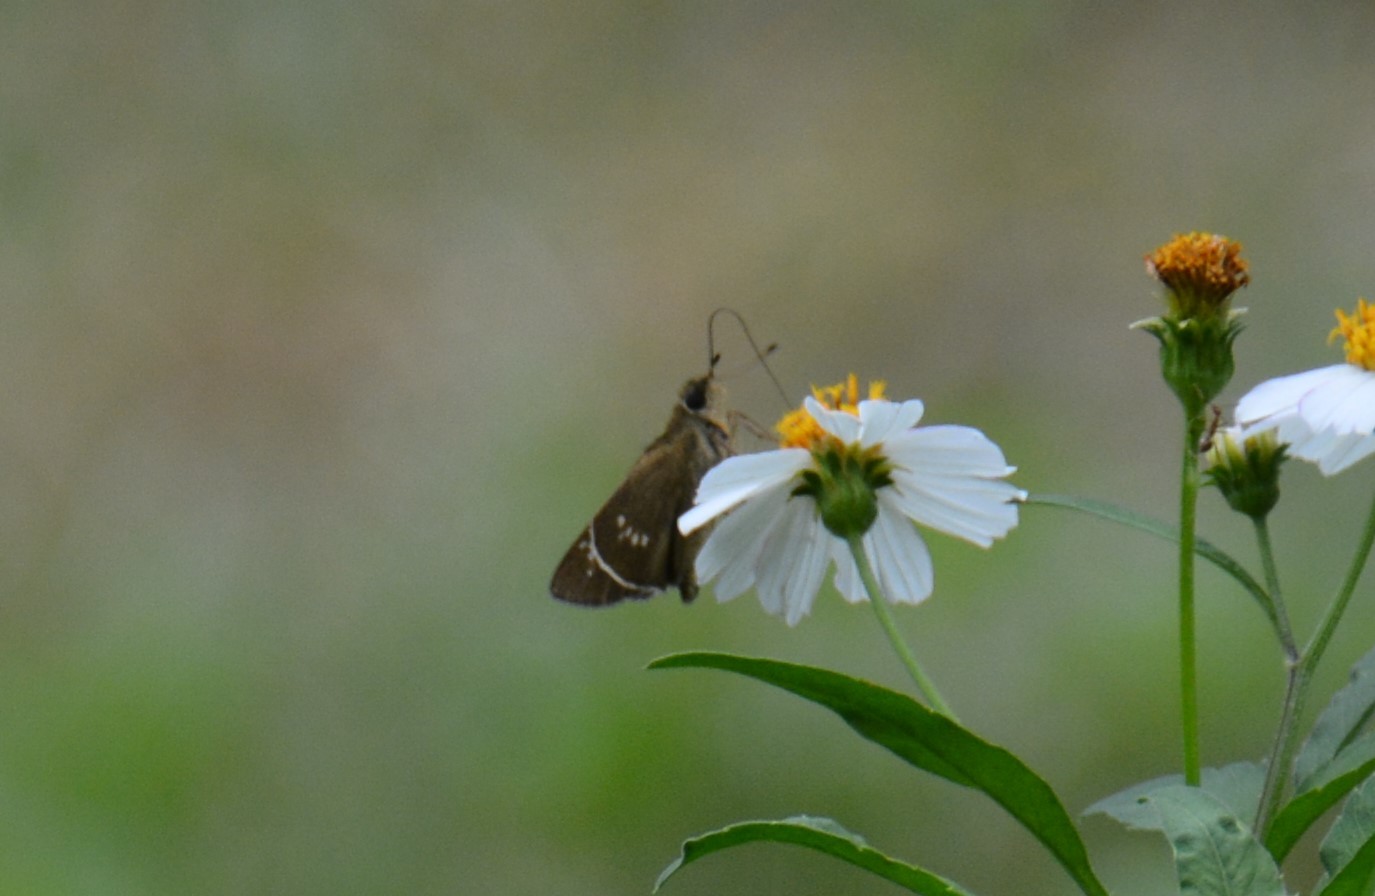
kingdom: Animalia
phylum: Arthropoda
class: Insecta
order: Lepidoptera
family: Hesperiidae
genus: Borbo
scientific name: Borbo cinnara
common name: Formosan swift
